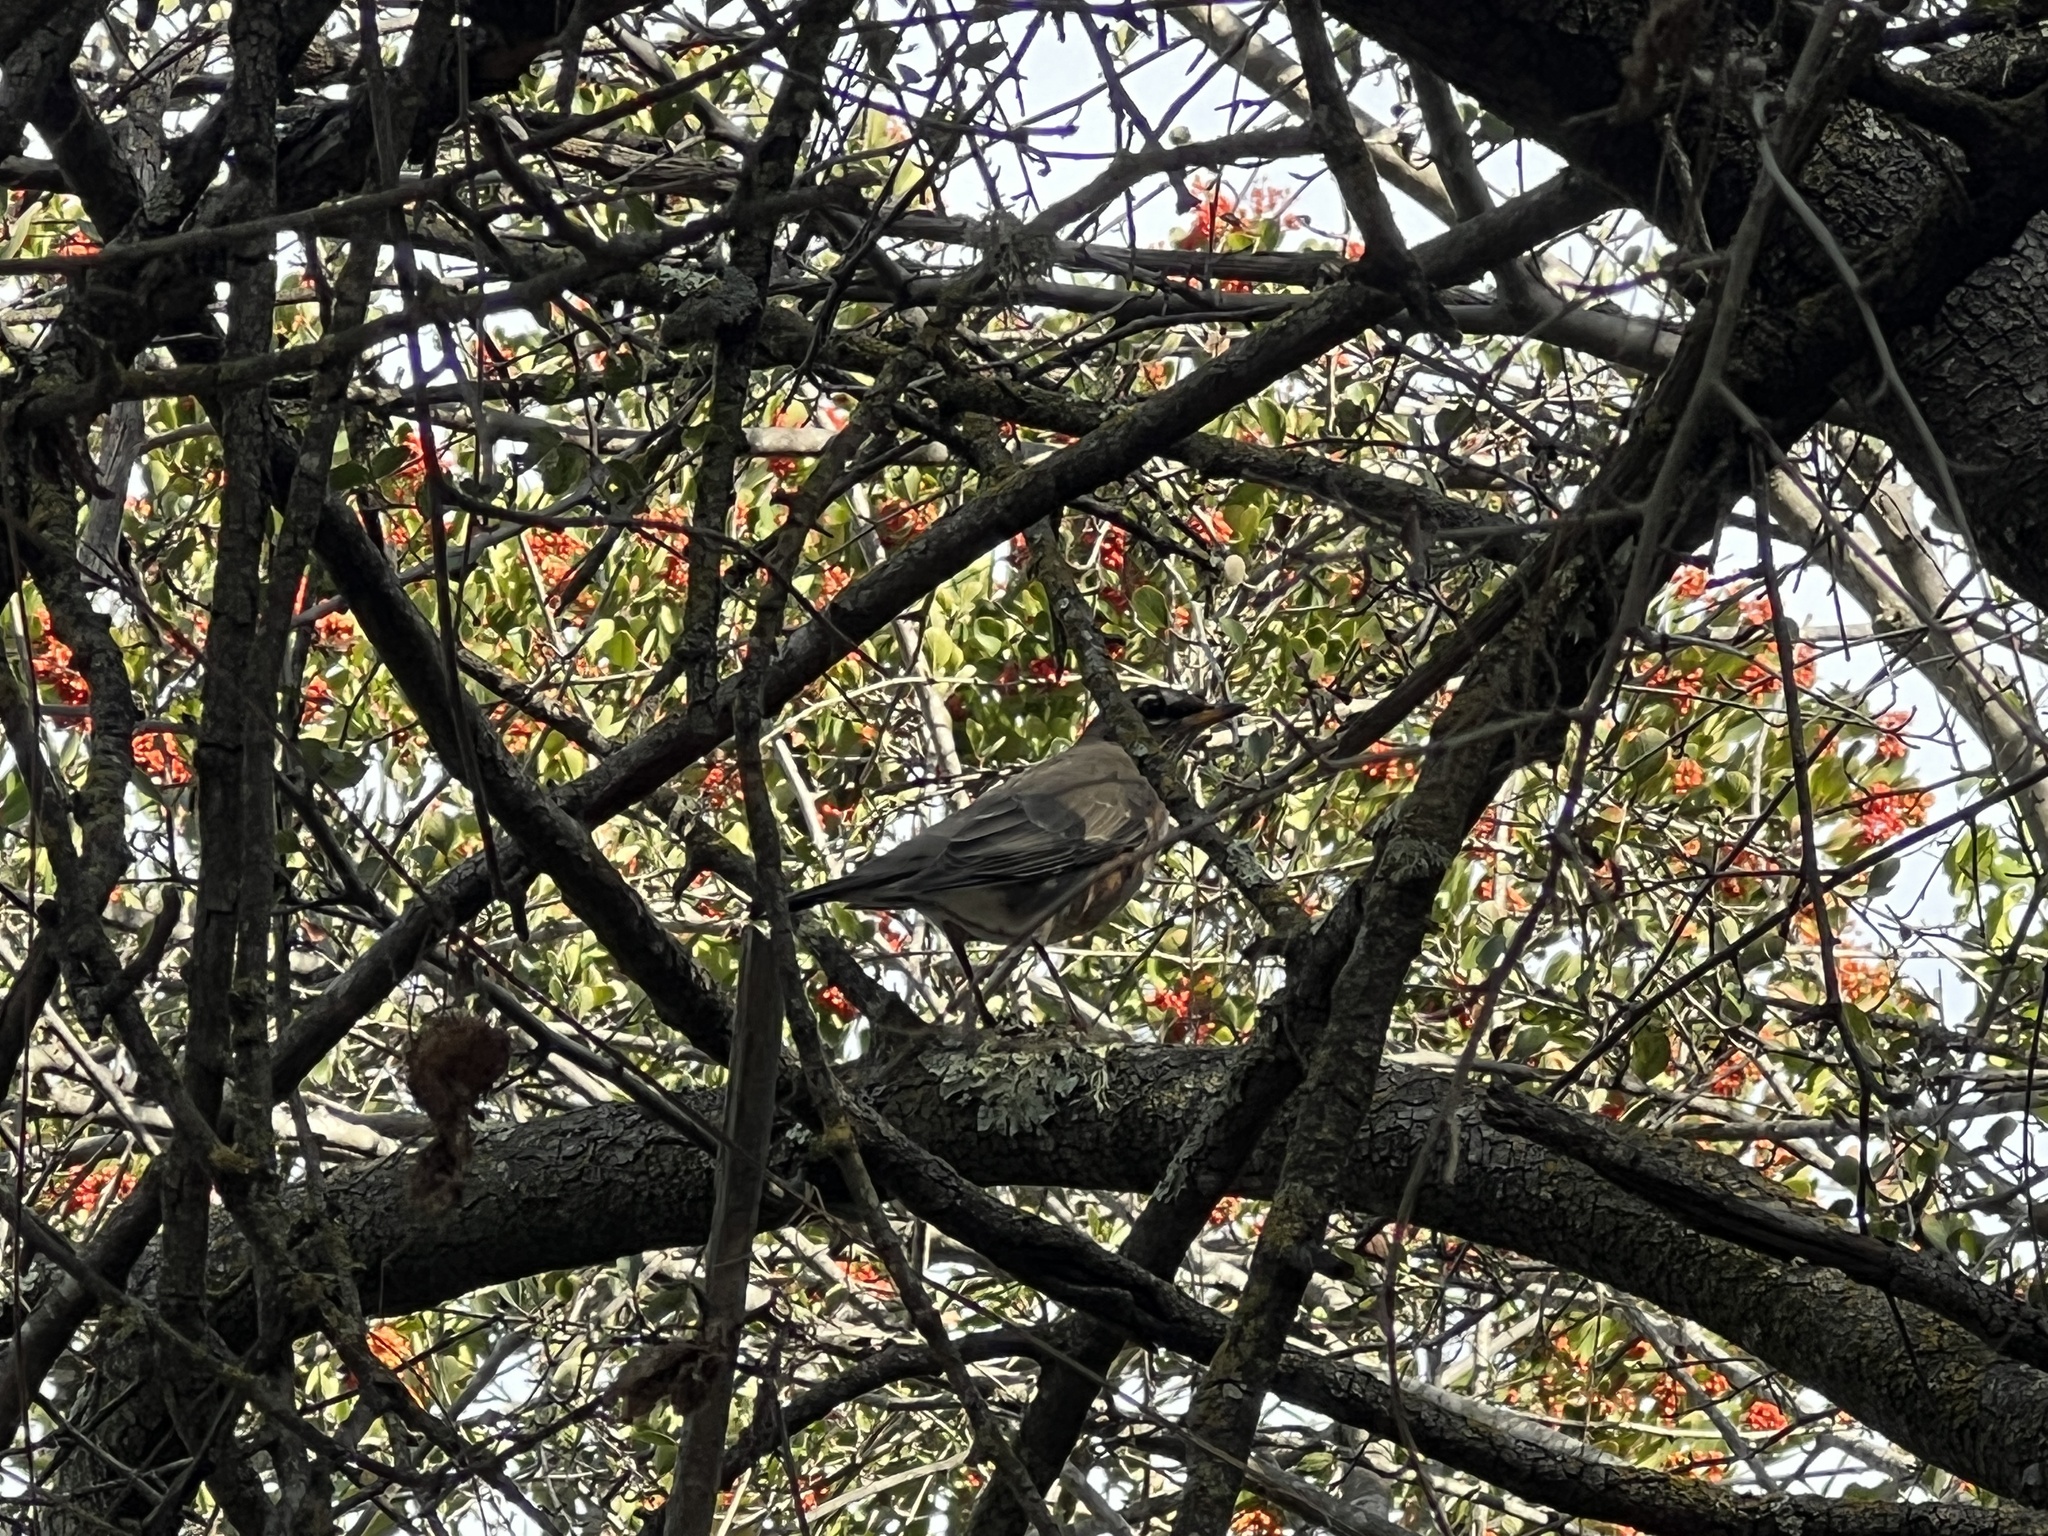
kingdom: Animalia
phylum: Chordata
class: Aves
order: Passeriformes
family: Turdidae
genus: Turdus
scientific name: Turdus migratorius
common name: American robin
